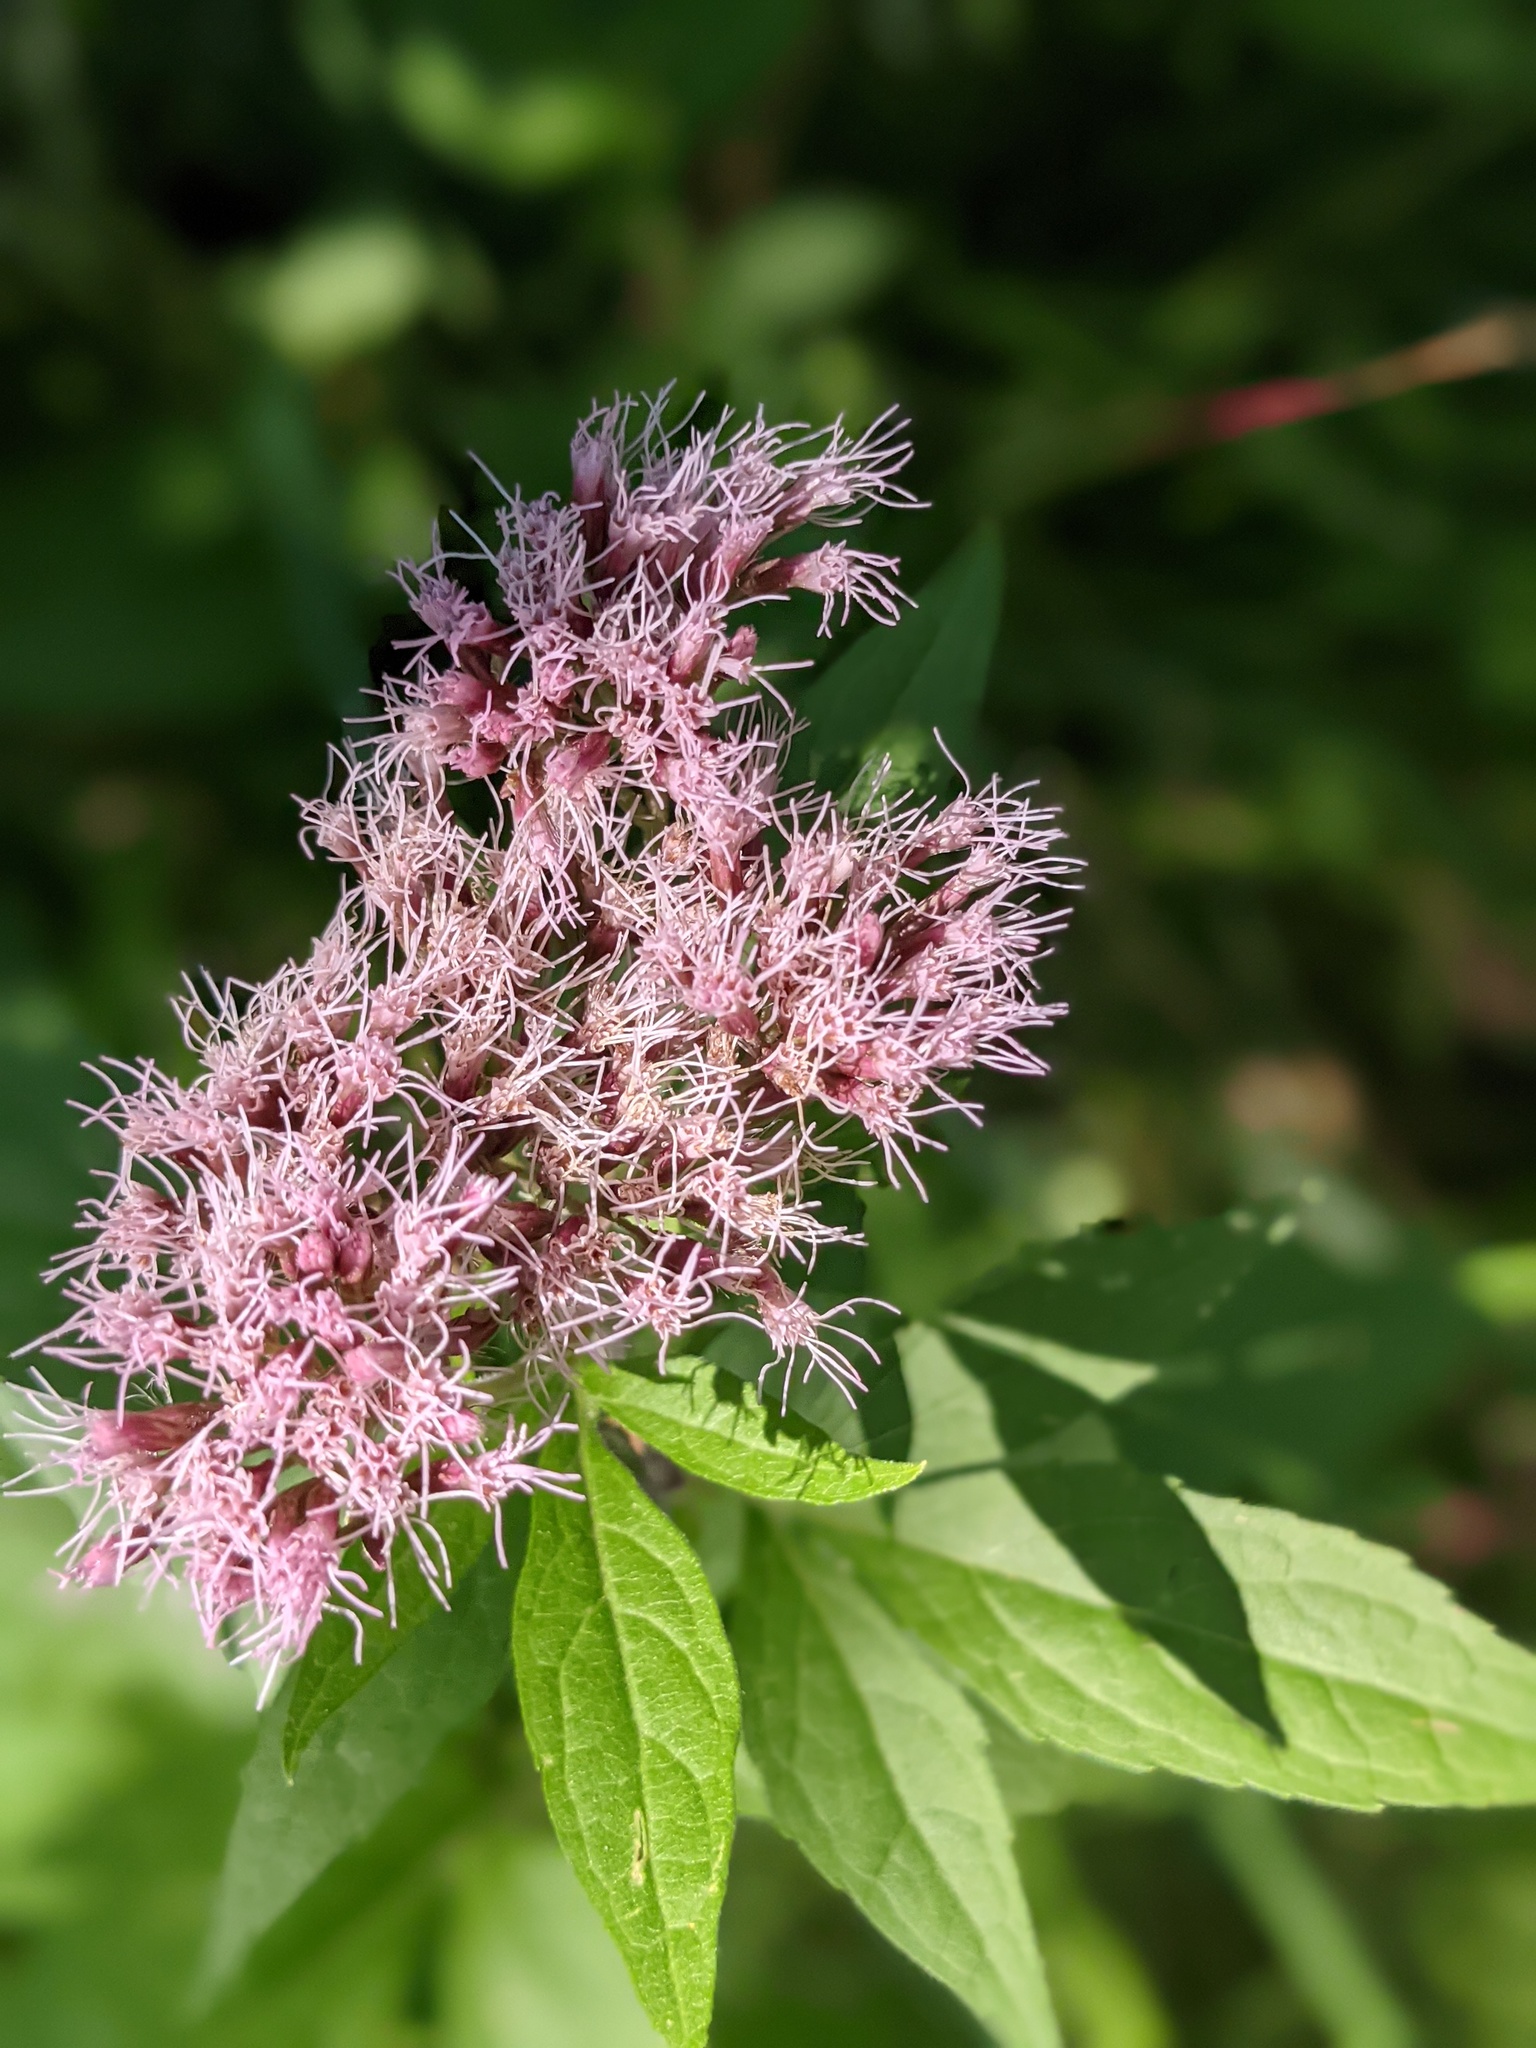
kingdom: Plantae
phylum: Tracheophyta
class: Magnoliopsida
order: Asterales
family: Asteraceae
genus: Eupatorium
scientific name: Eupatorium cannabinum
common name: Hemp-agrimony
